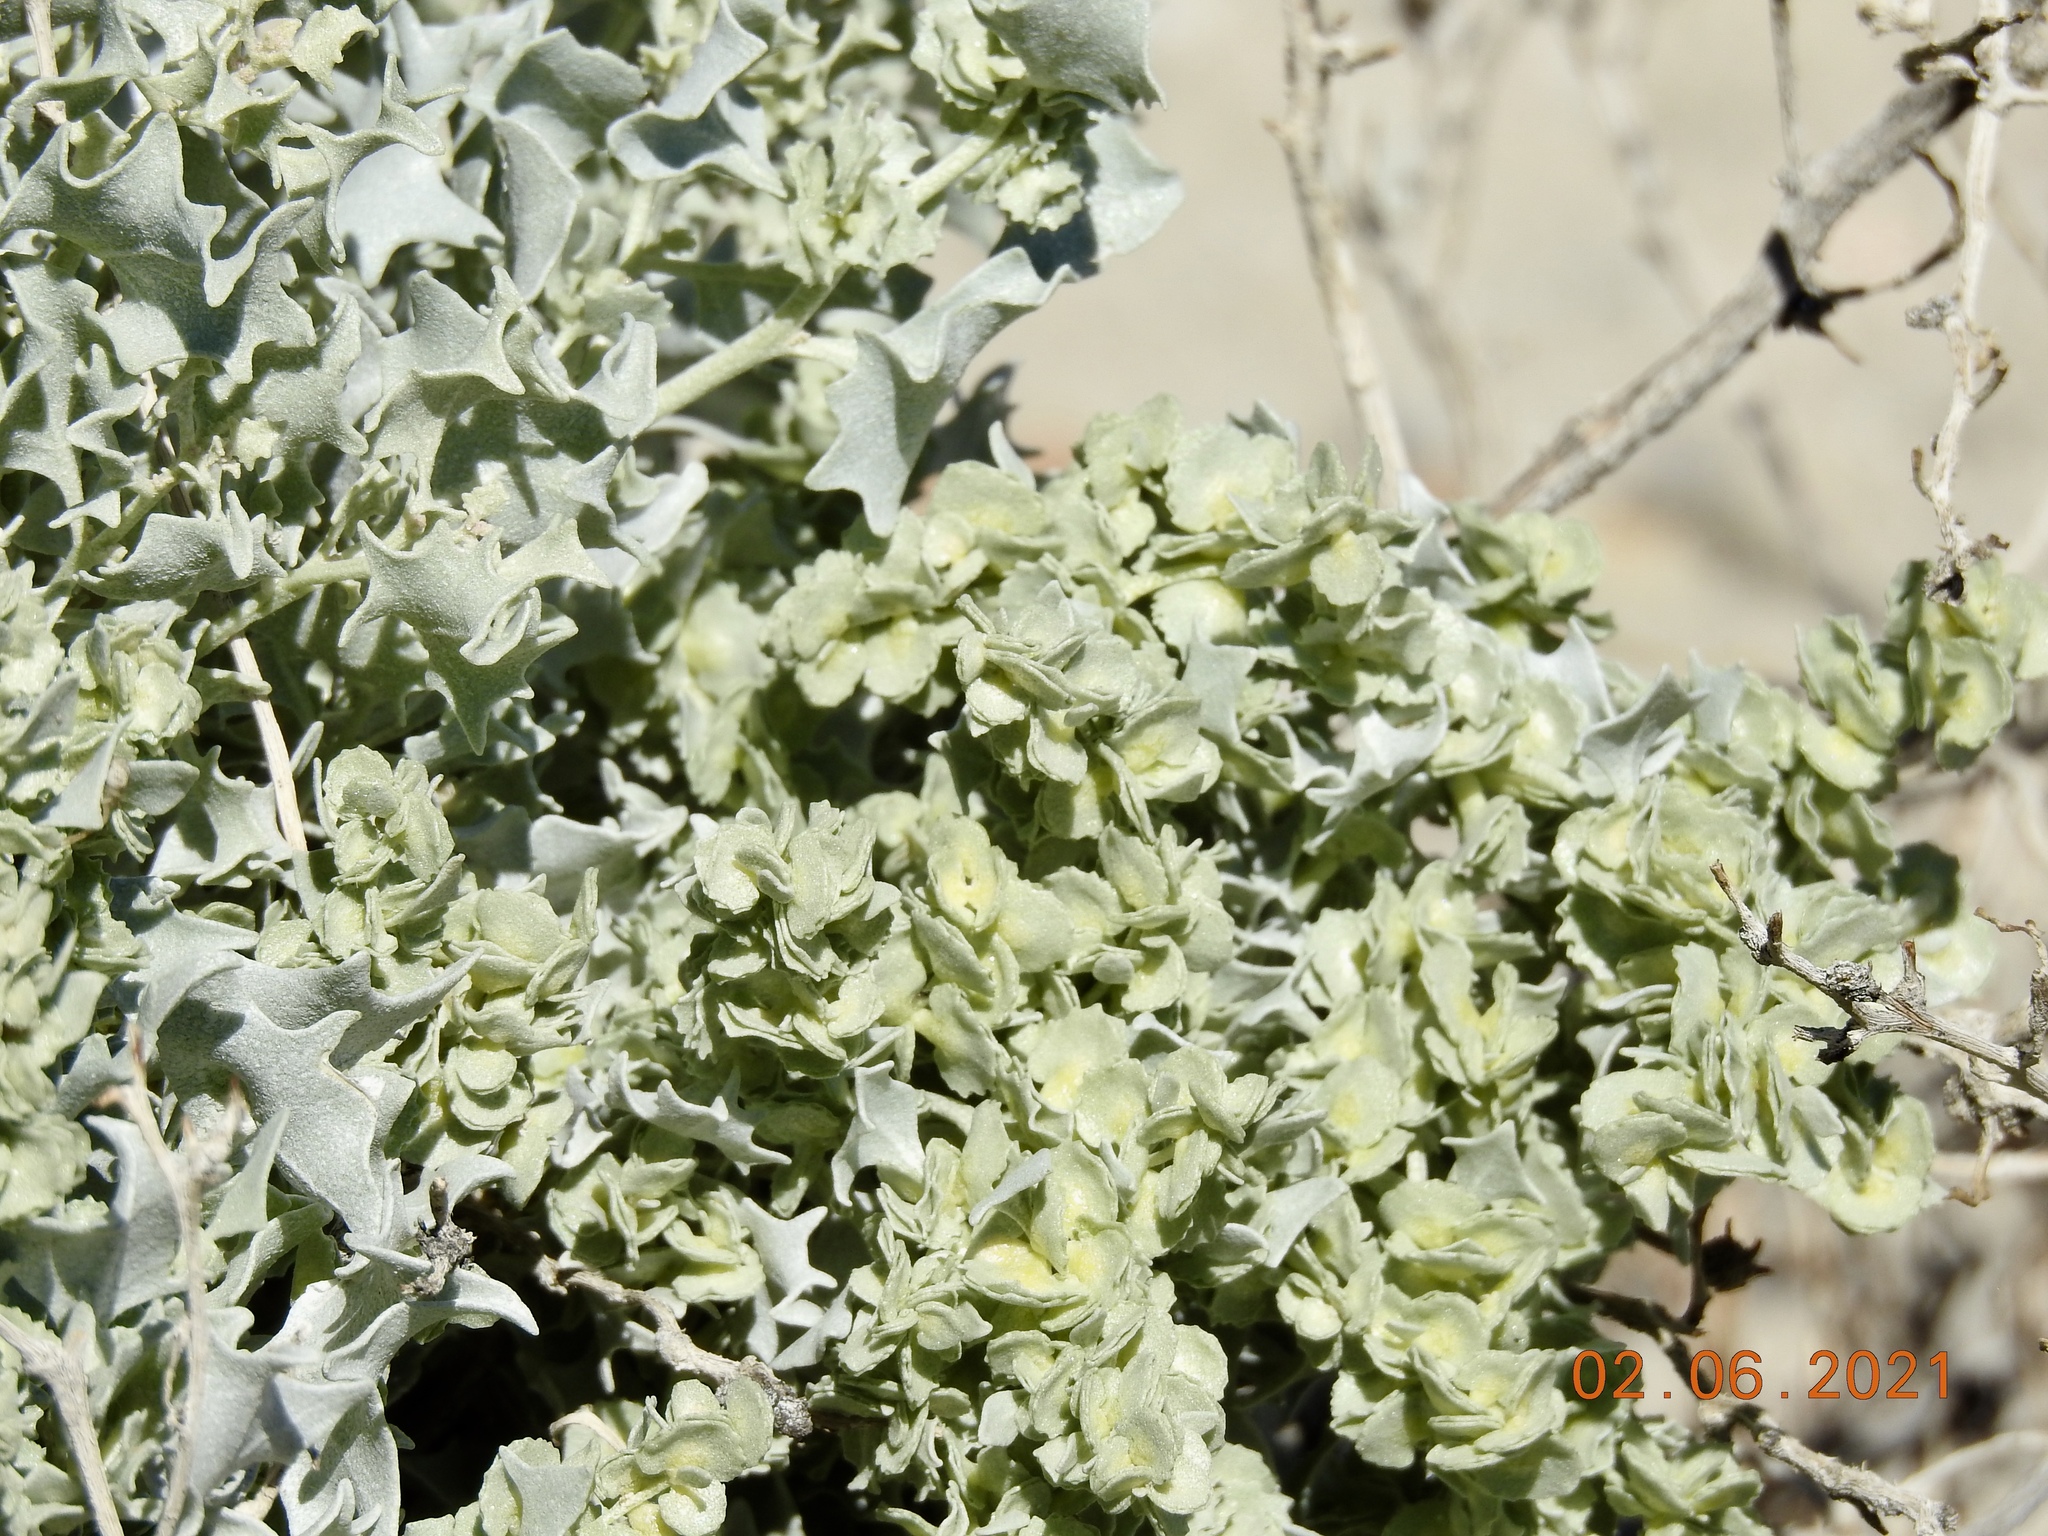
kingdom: Plantae
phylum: Tracheophyta
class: Magnoliopsida
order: Caryophyllales
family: Amaranthaceae
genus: Atriplex
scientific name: Atriplex hymenelytra
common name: Desert-holly
